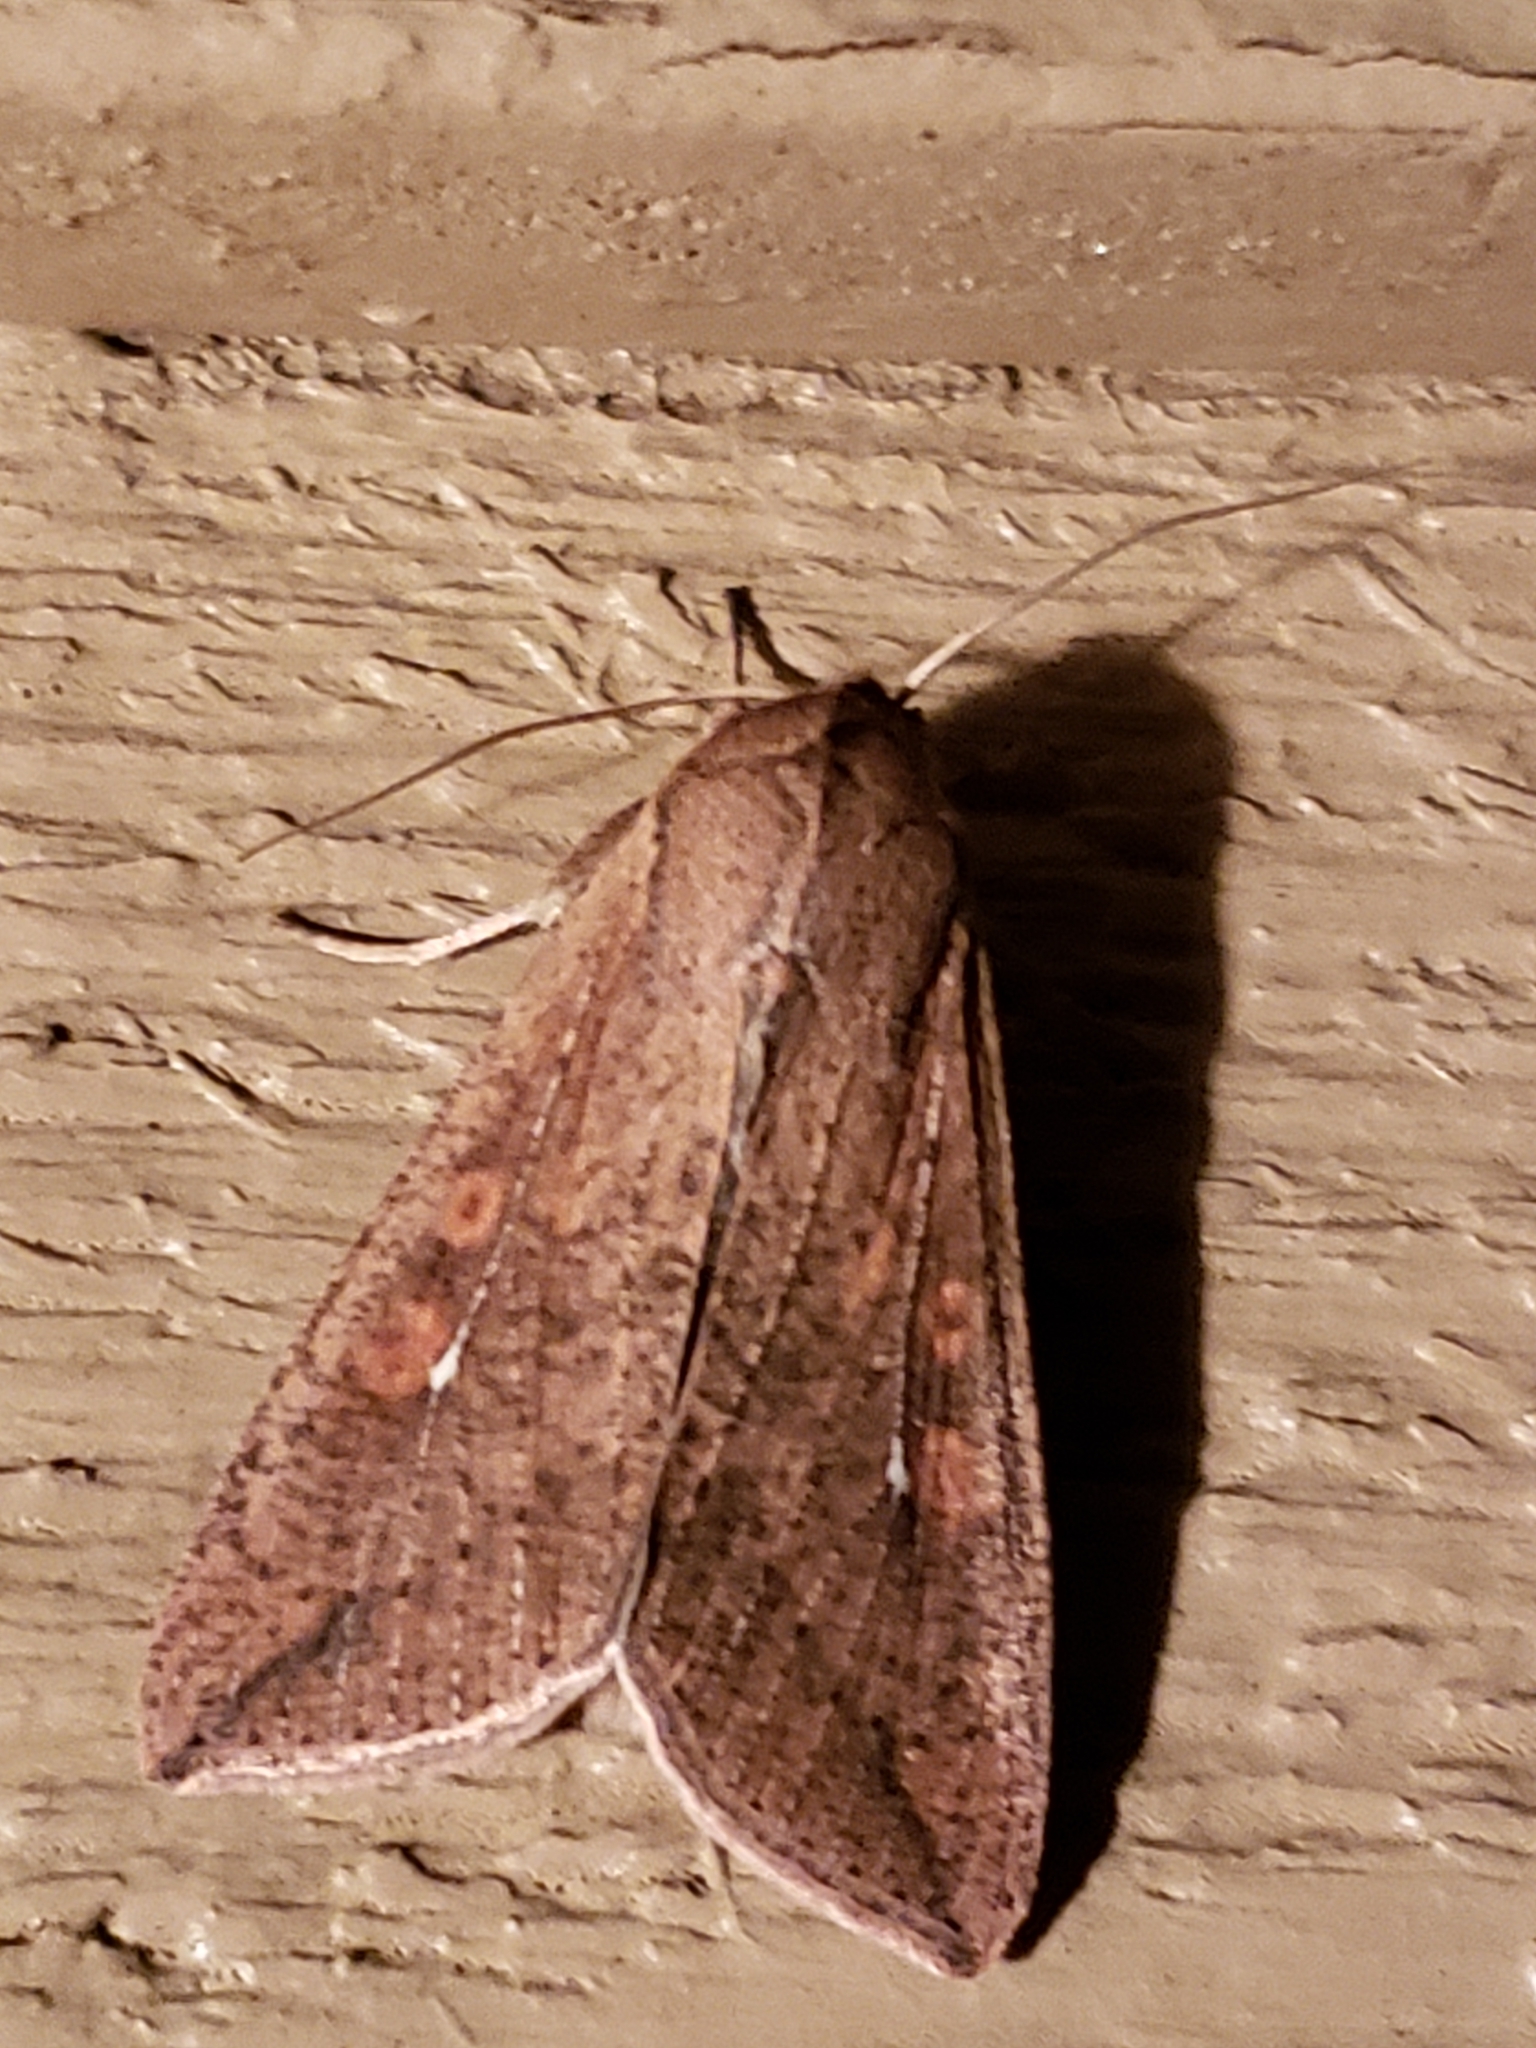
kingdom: Animalia
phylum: Arthropoda
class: Insecta
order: Lepidoptera
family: Noctuidae
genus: Mythimna
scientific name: Mythimna unipuncta
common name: White-speck
